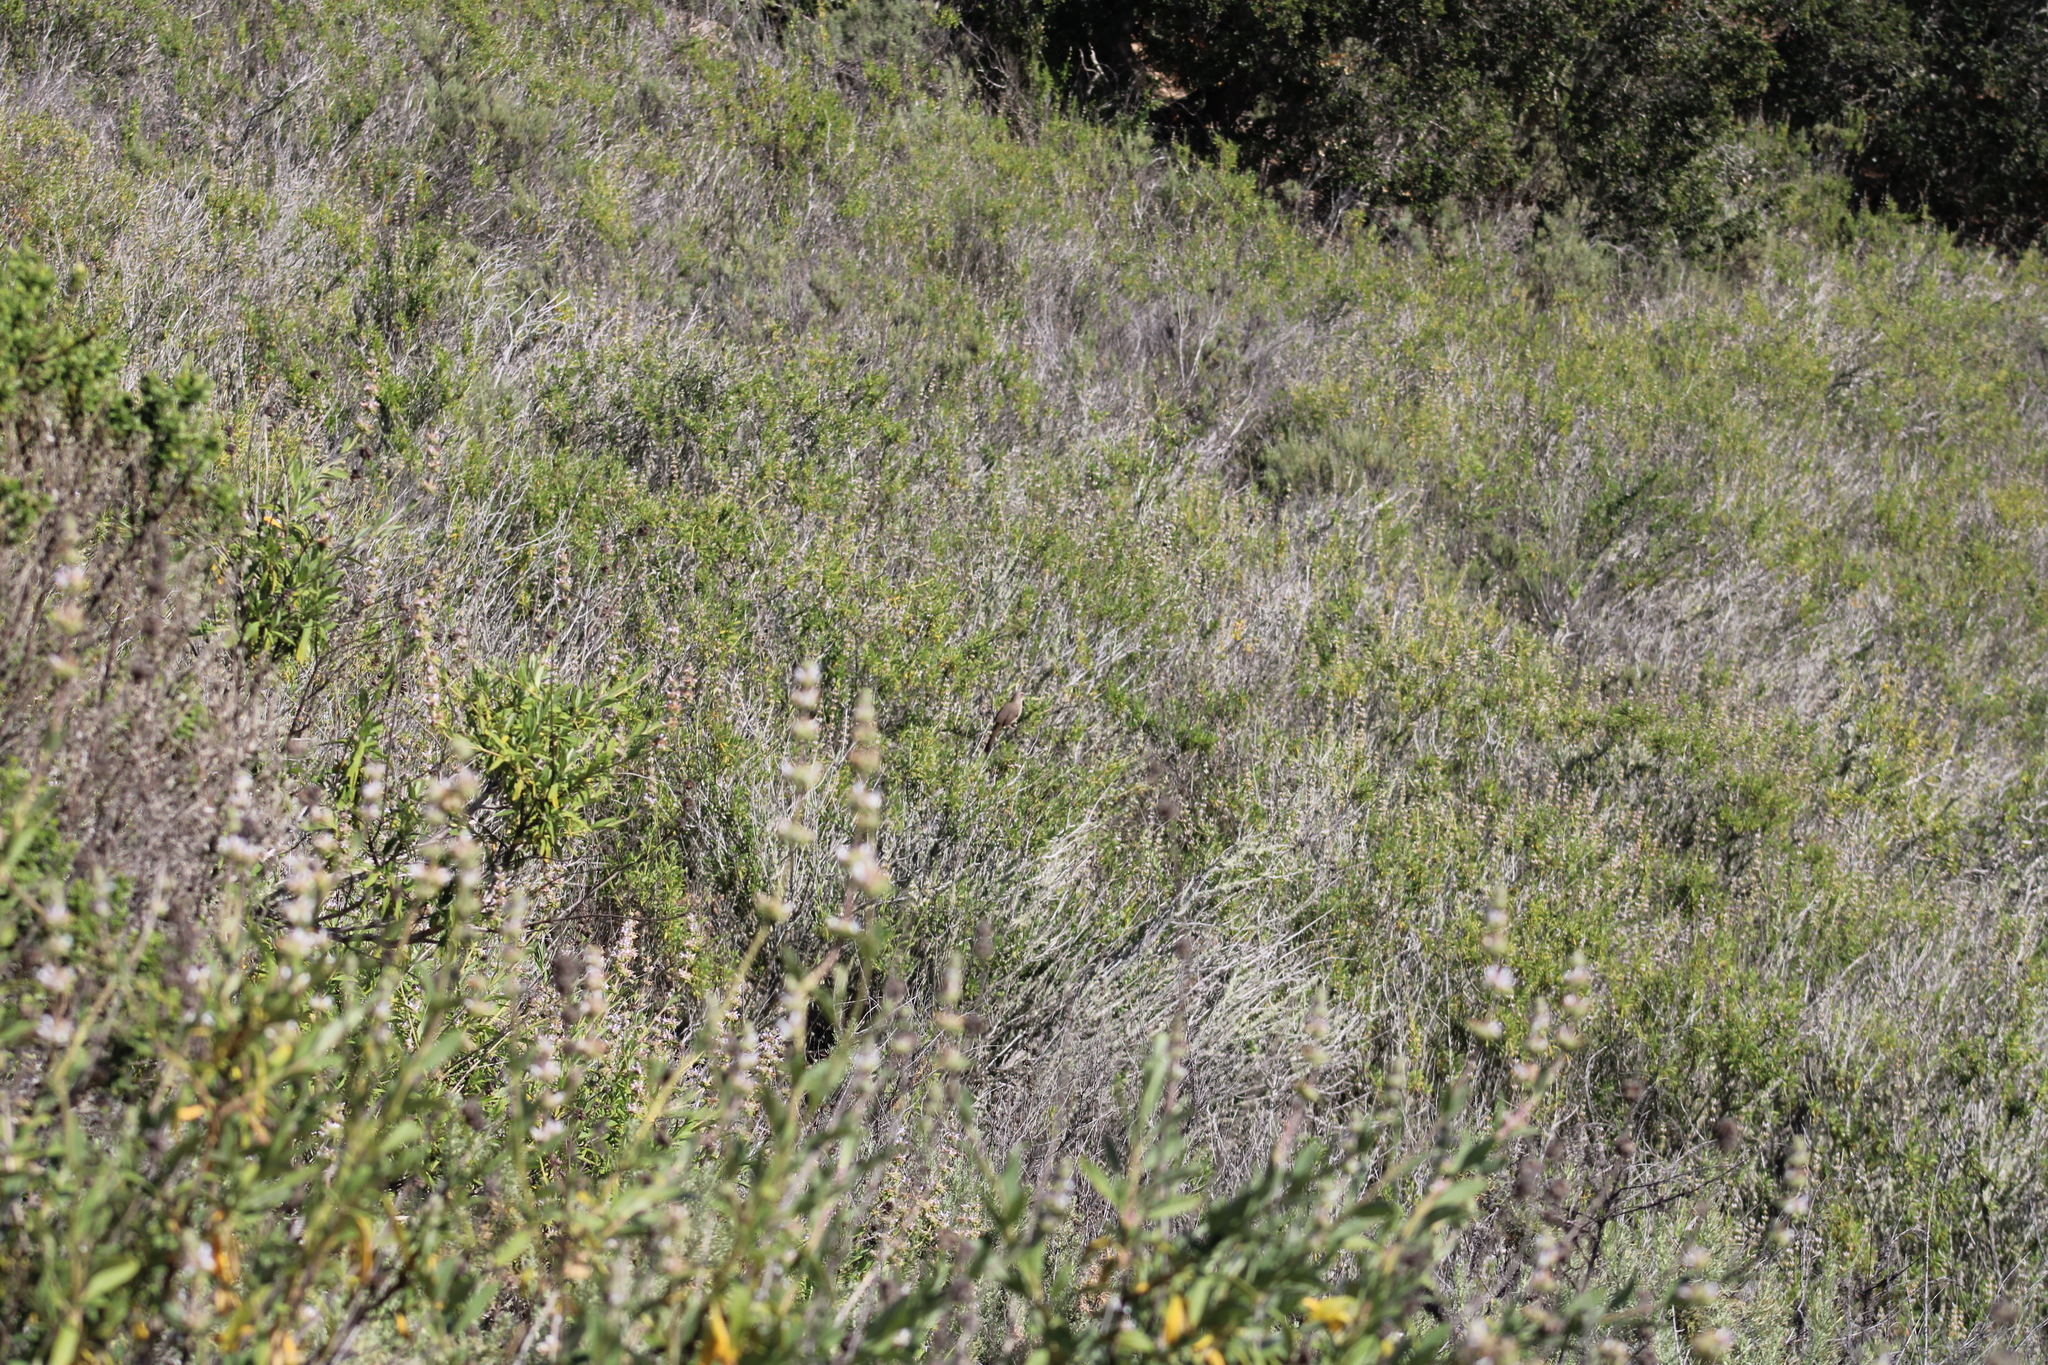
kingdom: Animalia
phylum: Chordata
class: Aves
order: Passeriformes
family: Mimidae
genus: Toxostoma
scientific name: Toxostoma redivivum
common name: California thrasher
